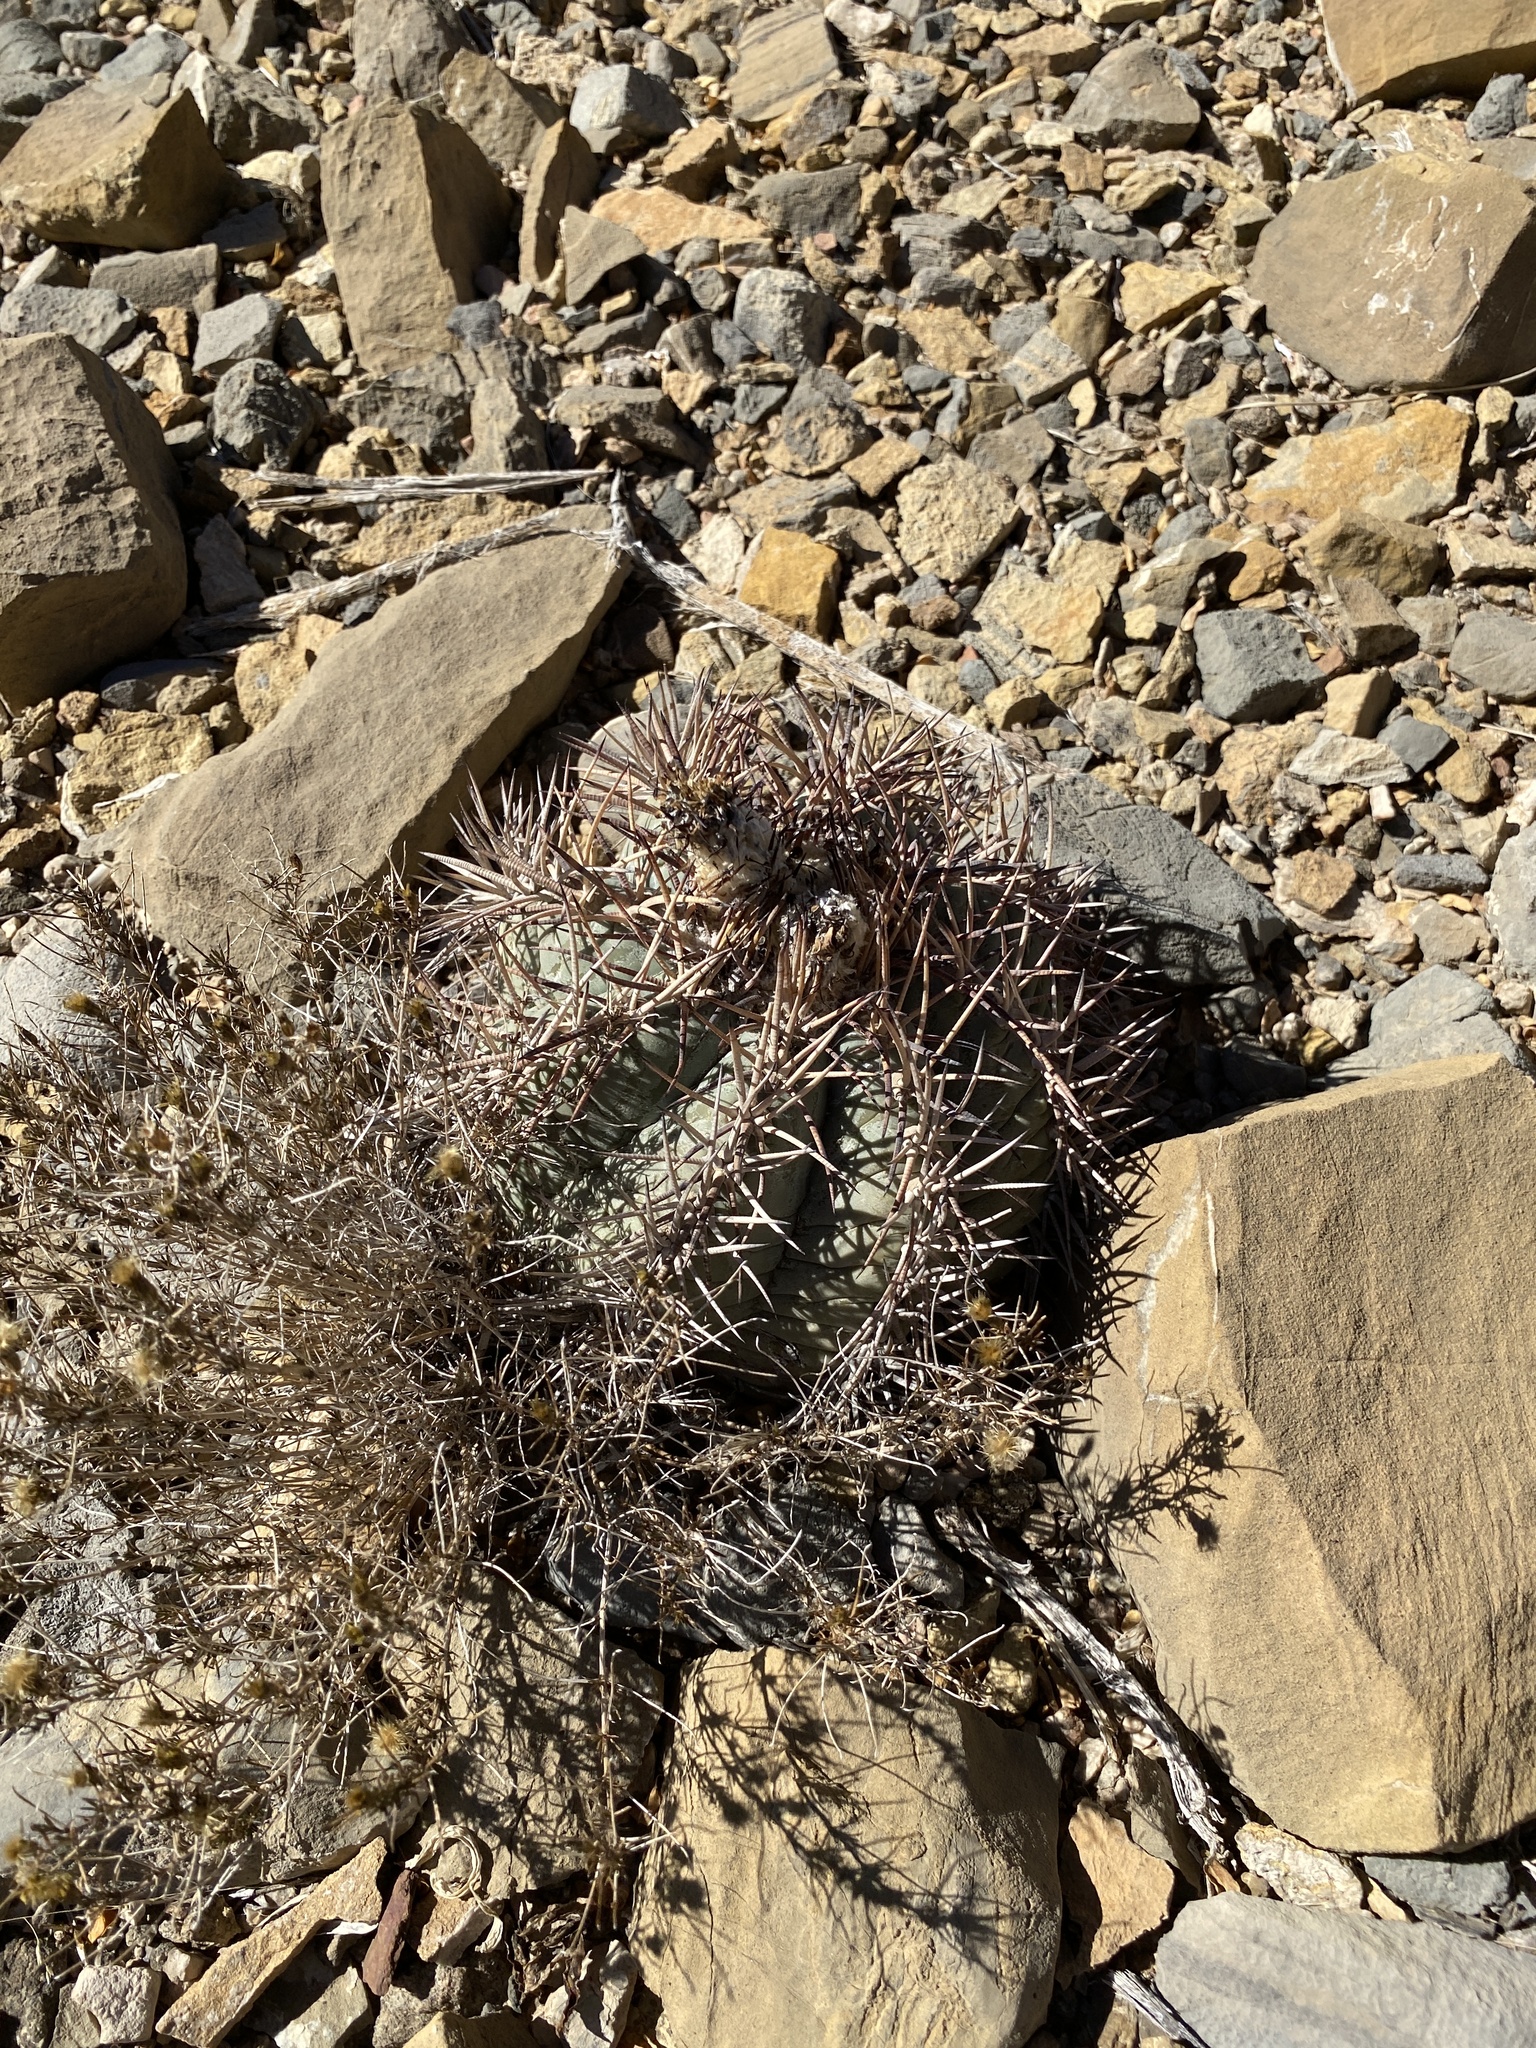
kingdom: Plantae
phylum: Tracheophyta
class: Magnoliopsida
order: Caryophyllales
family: Cactaceae
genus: Echinocactus
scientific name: Echinocactus horizonthalonius
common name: Devilshead
